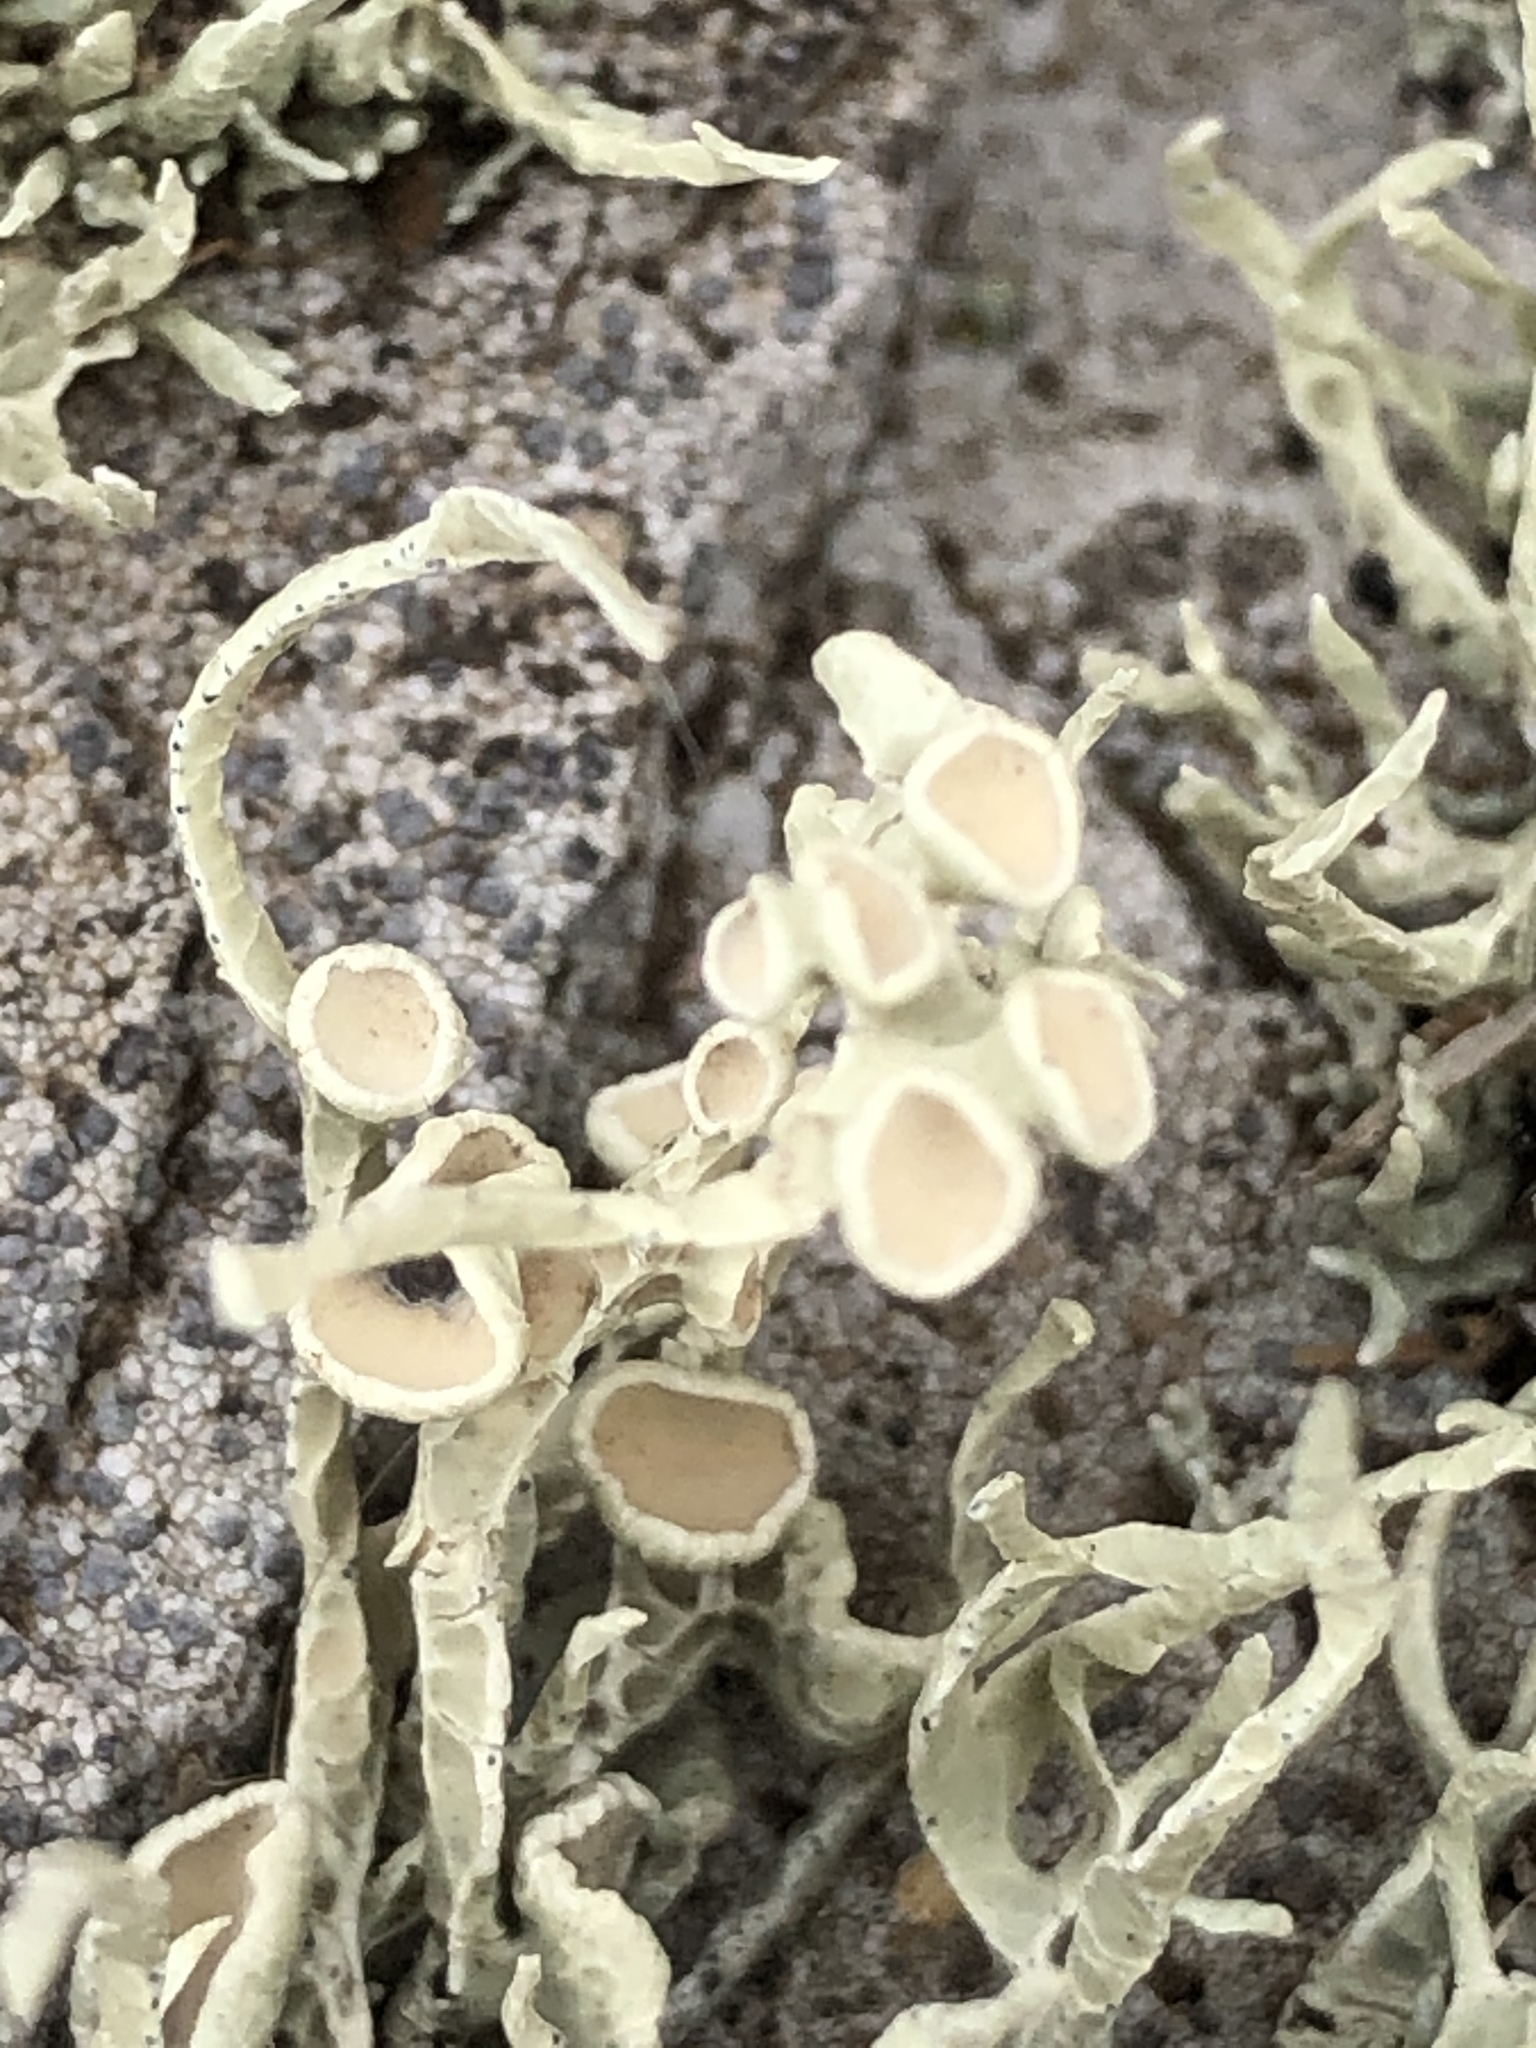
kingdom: Fungi
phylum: Ascomycota
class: Lecanoromycetes
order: Lecanorales
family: Ramalinaceae
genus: Niebla
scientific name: Niebla homalea
